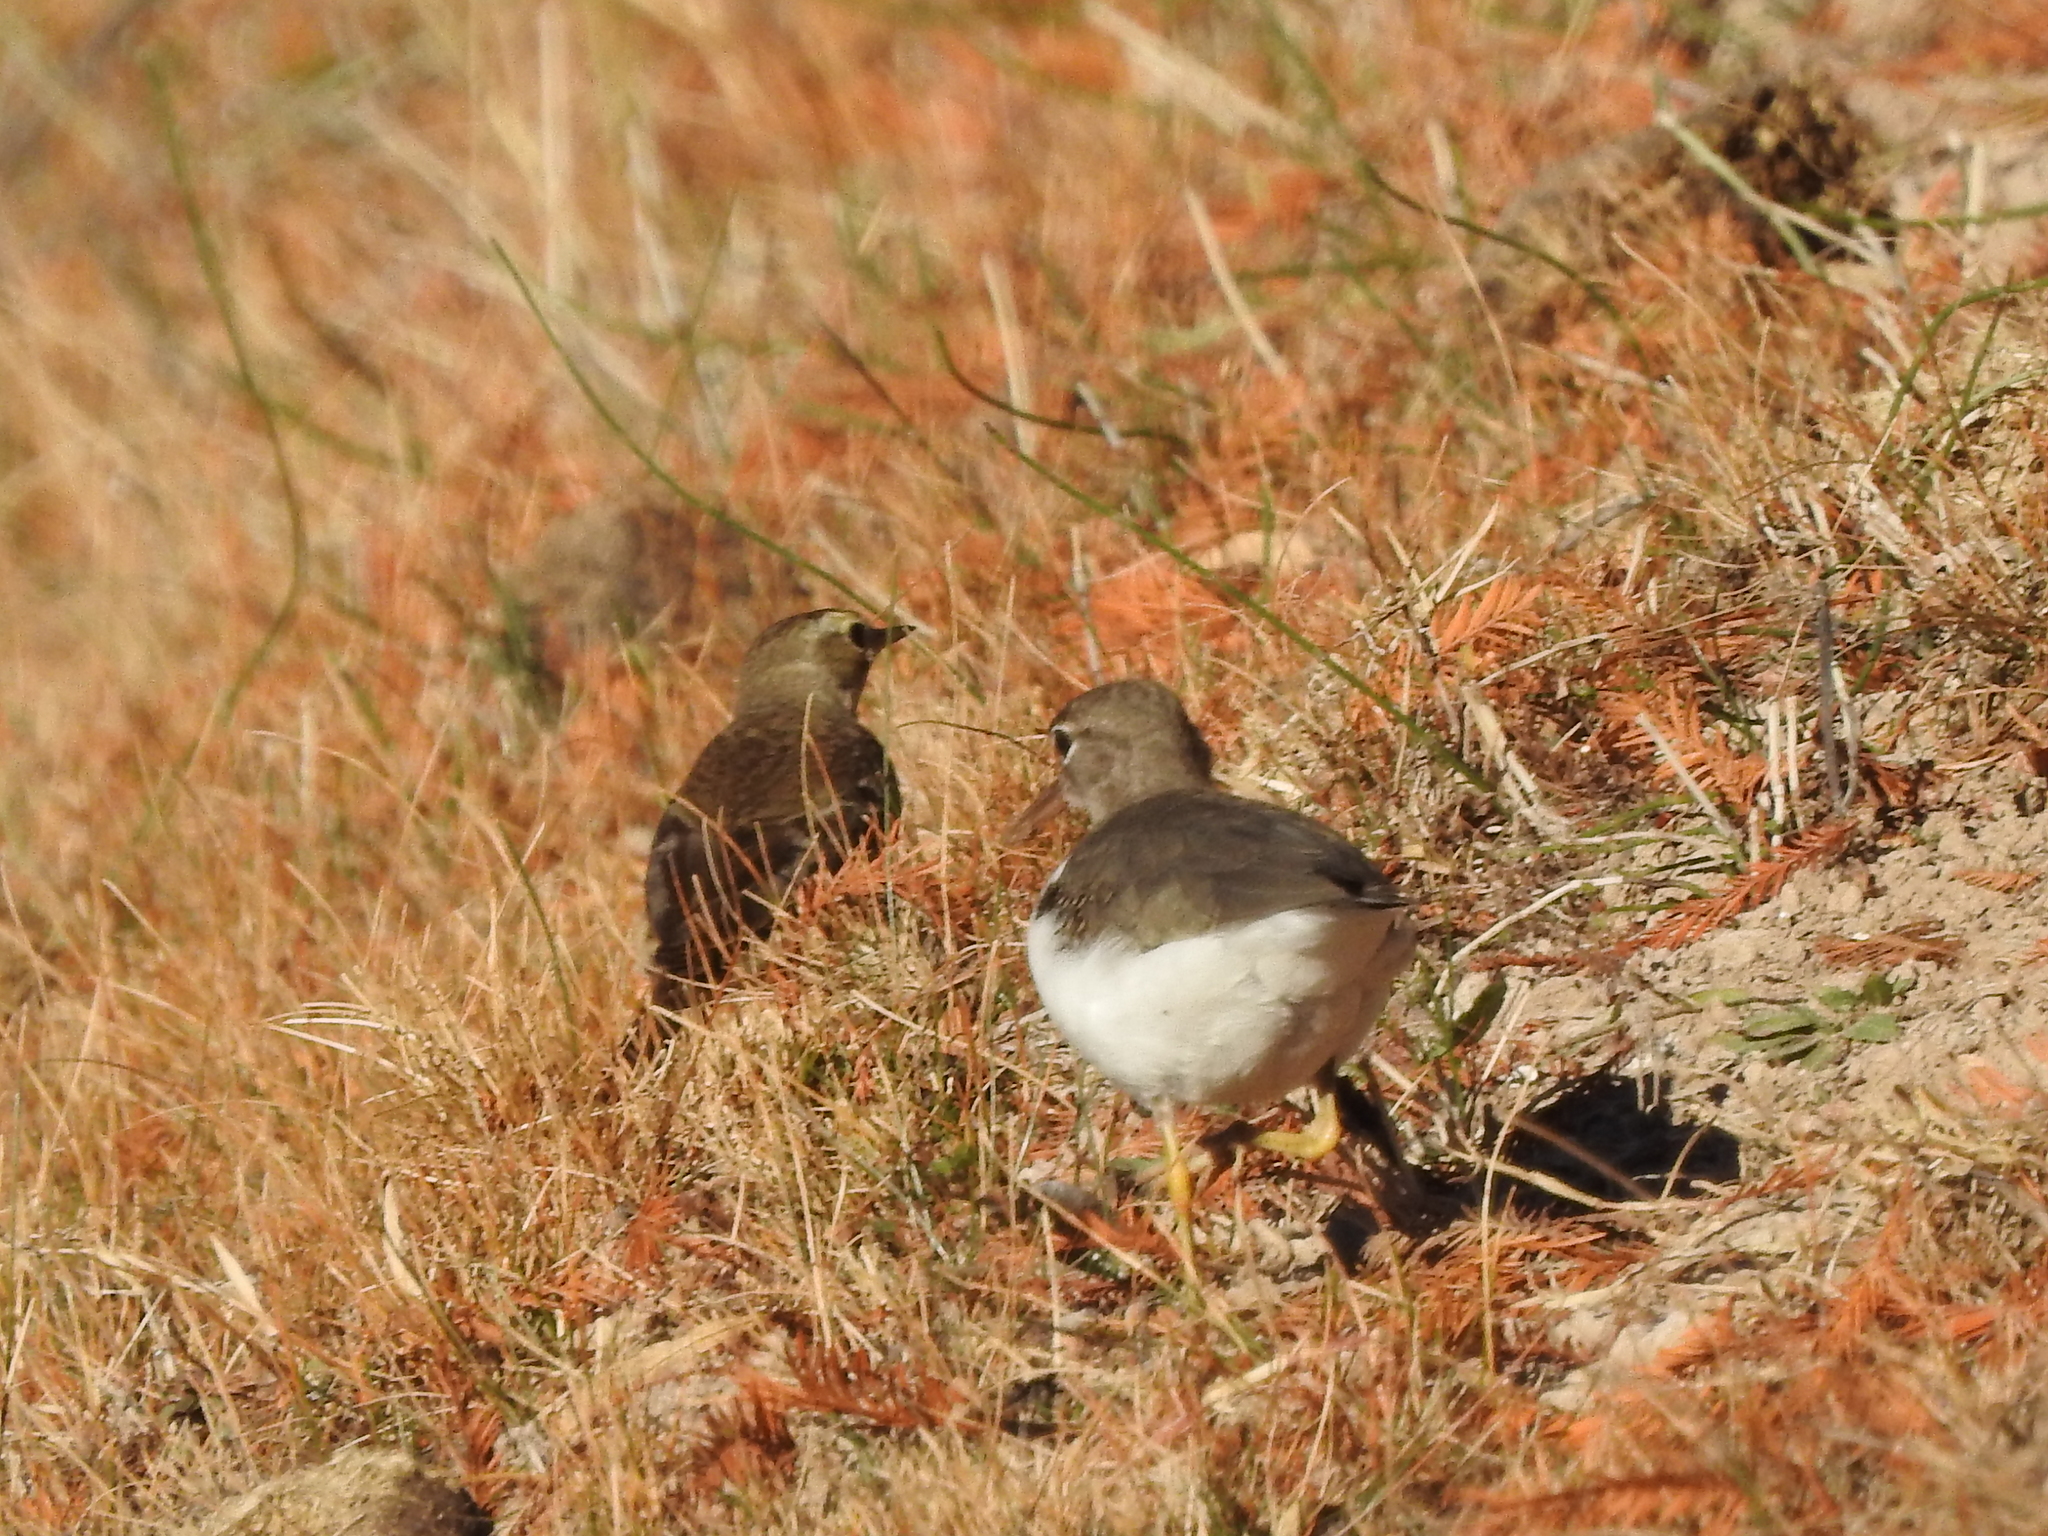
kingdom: Animalia
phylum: Chordata
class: Aves
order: Charadriiformes
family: Scolopacidae
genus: Actitis
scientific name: Actitis macularius
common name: Spotted sandpiper
